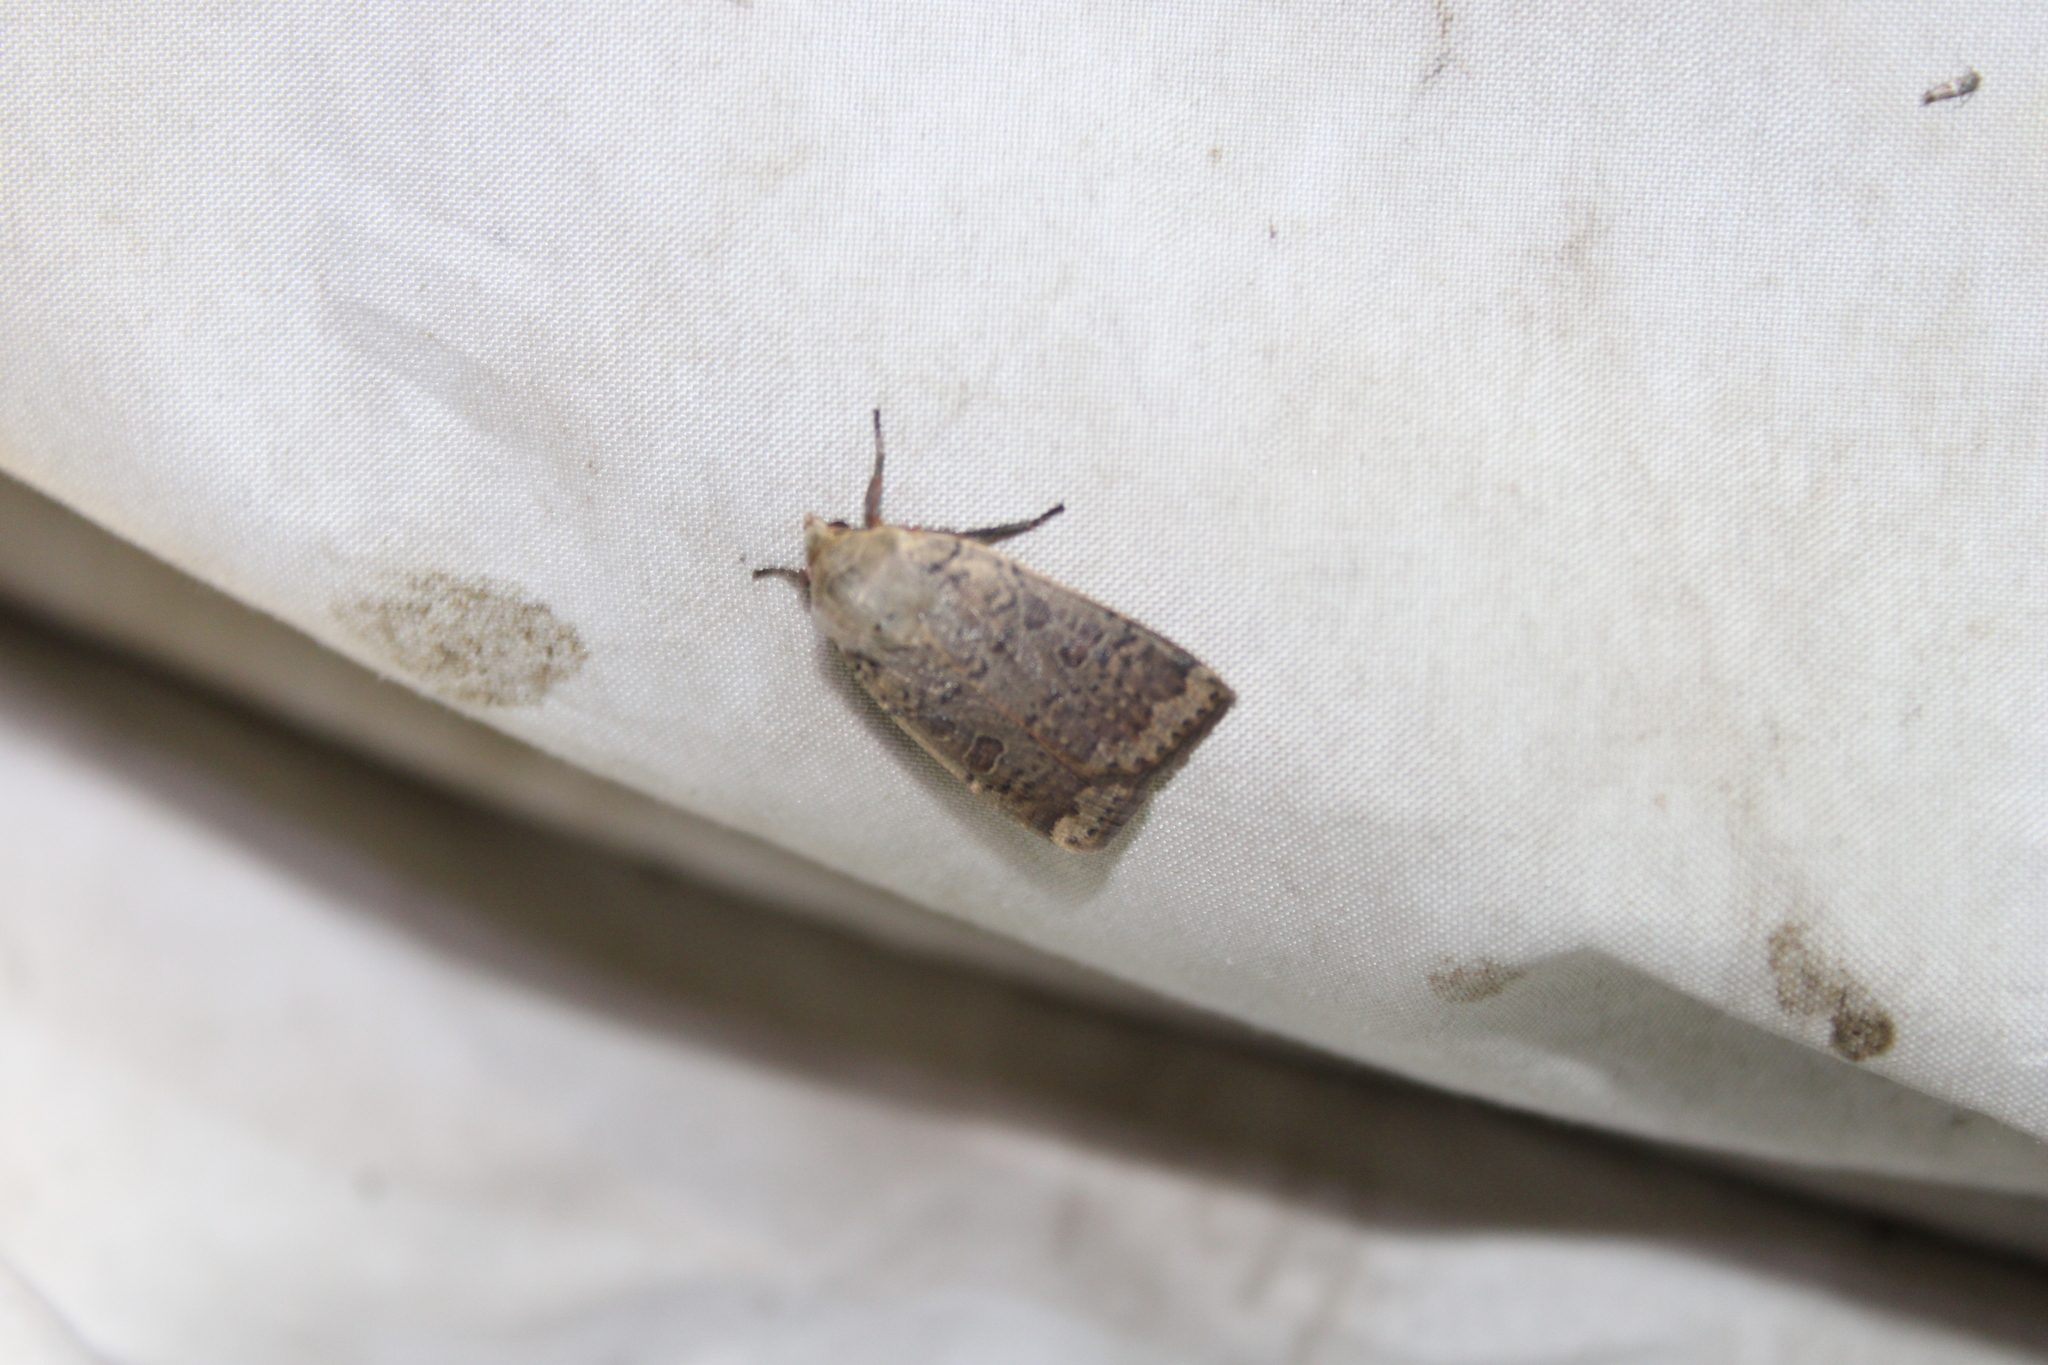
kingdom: Animalia
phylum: Arthropoda
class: Insecta
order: Lepidoptera
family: Noctuidae
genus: Abagrotis
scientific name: Abagrotis alternata
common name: Greater red dart
